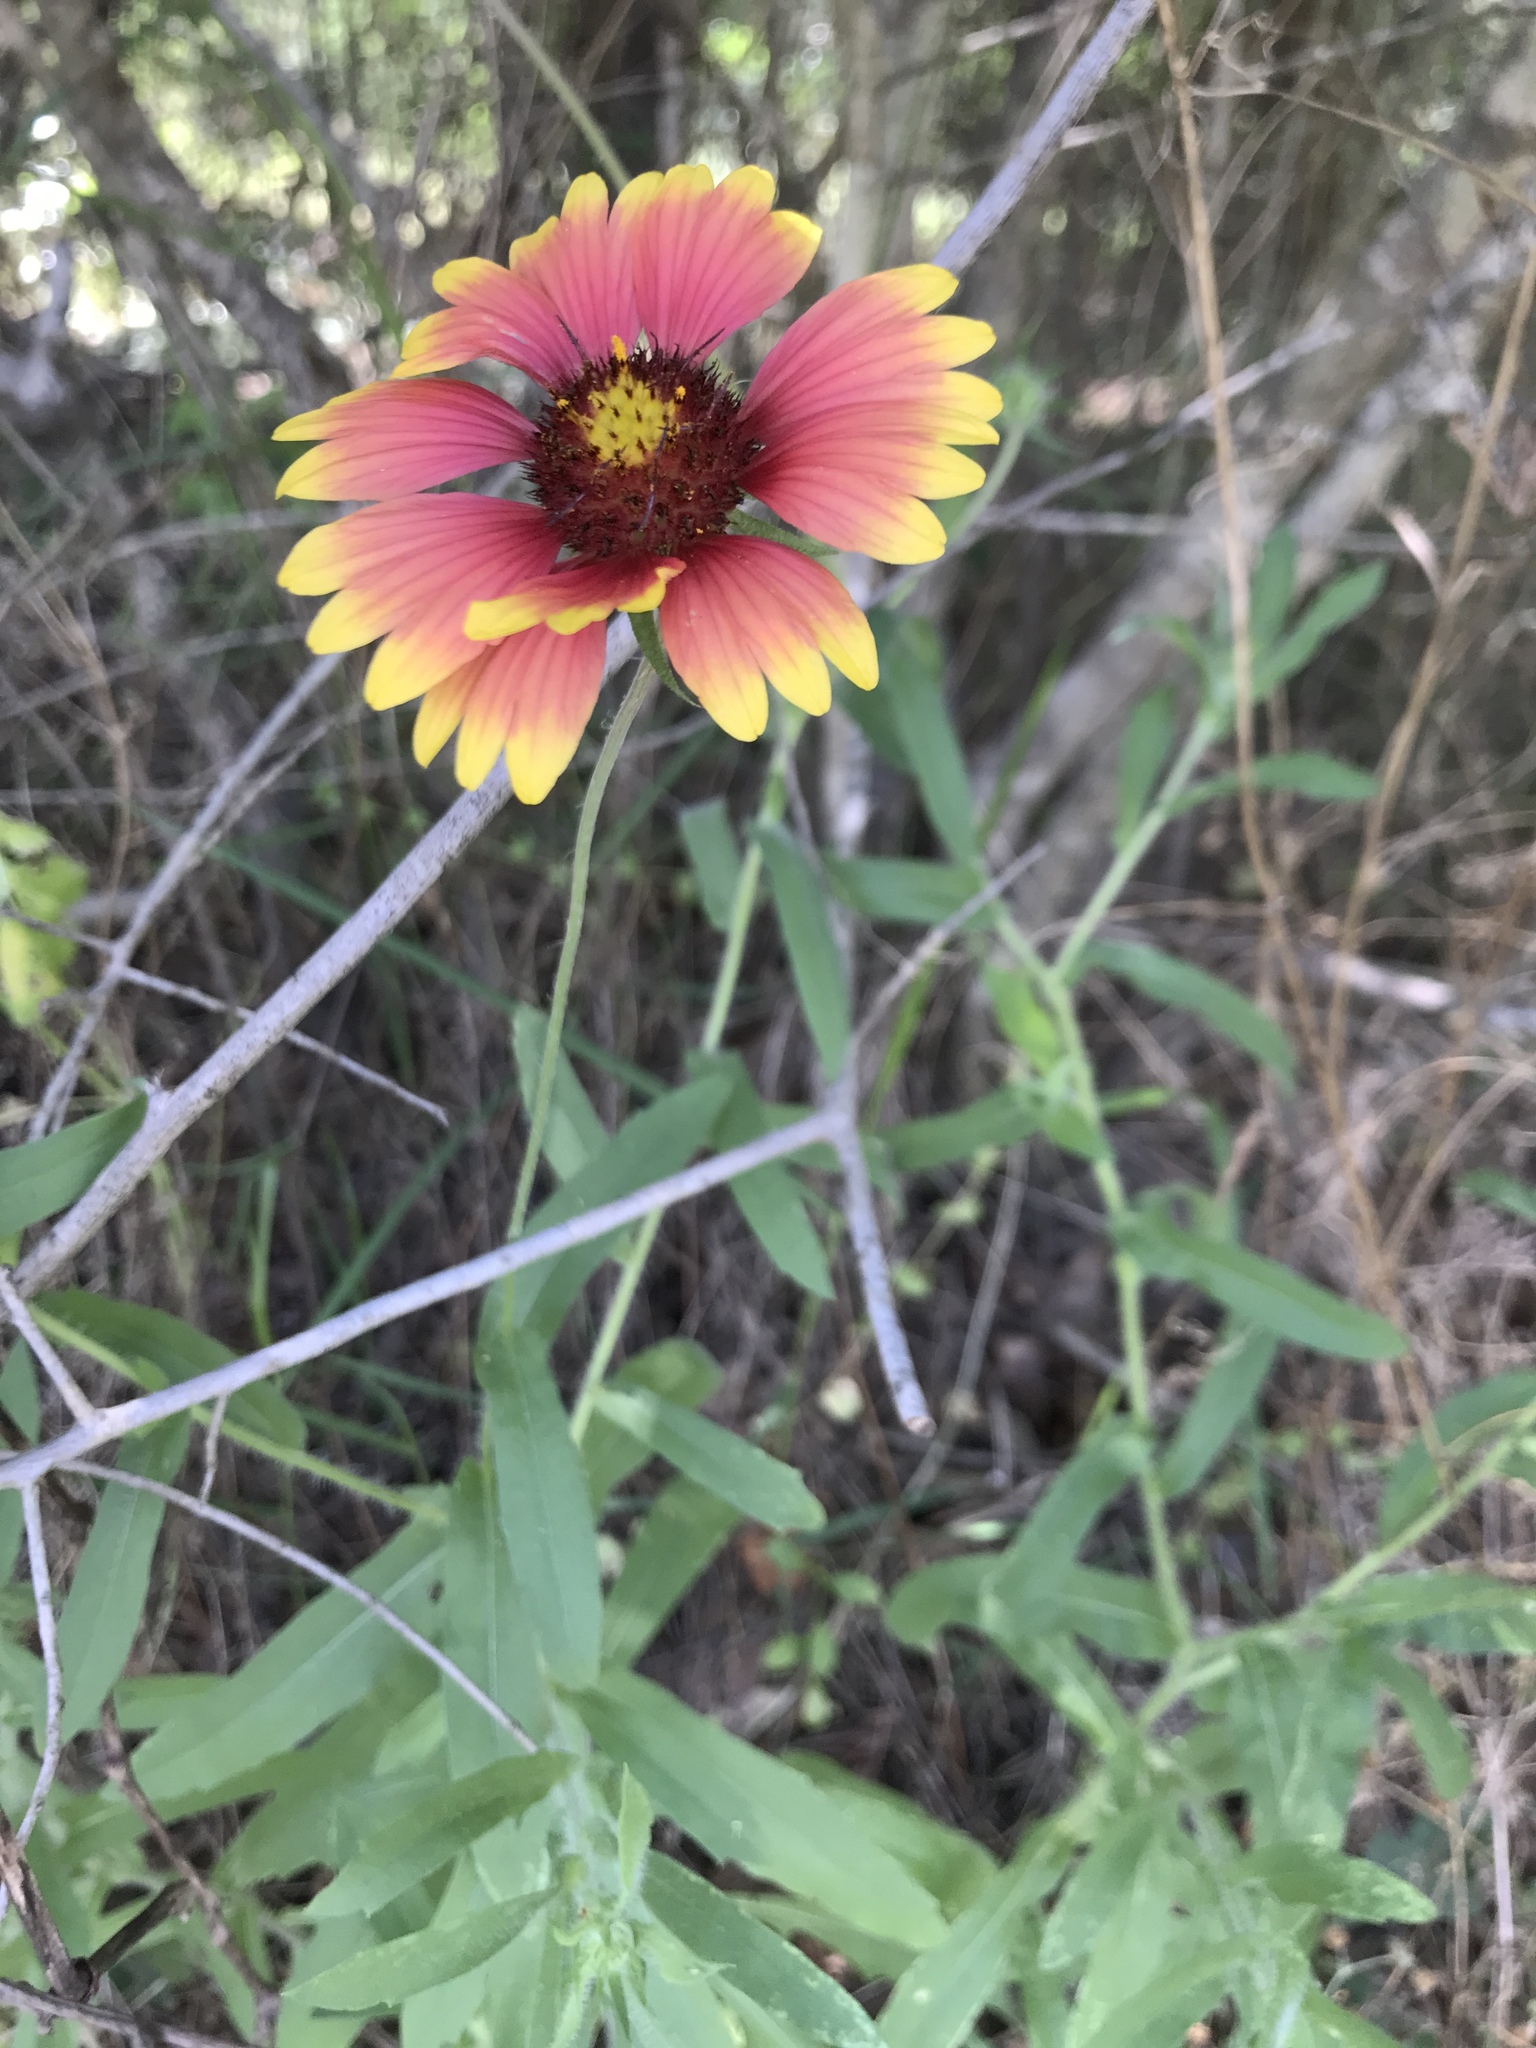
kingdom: Plantae
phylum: Tracheophyta
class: Magnoliopsida
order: Asterales
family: Asteraceae
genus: Gaillardia
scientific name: Gaillardia pulchella
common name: Firewheel
